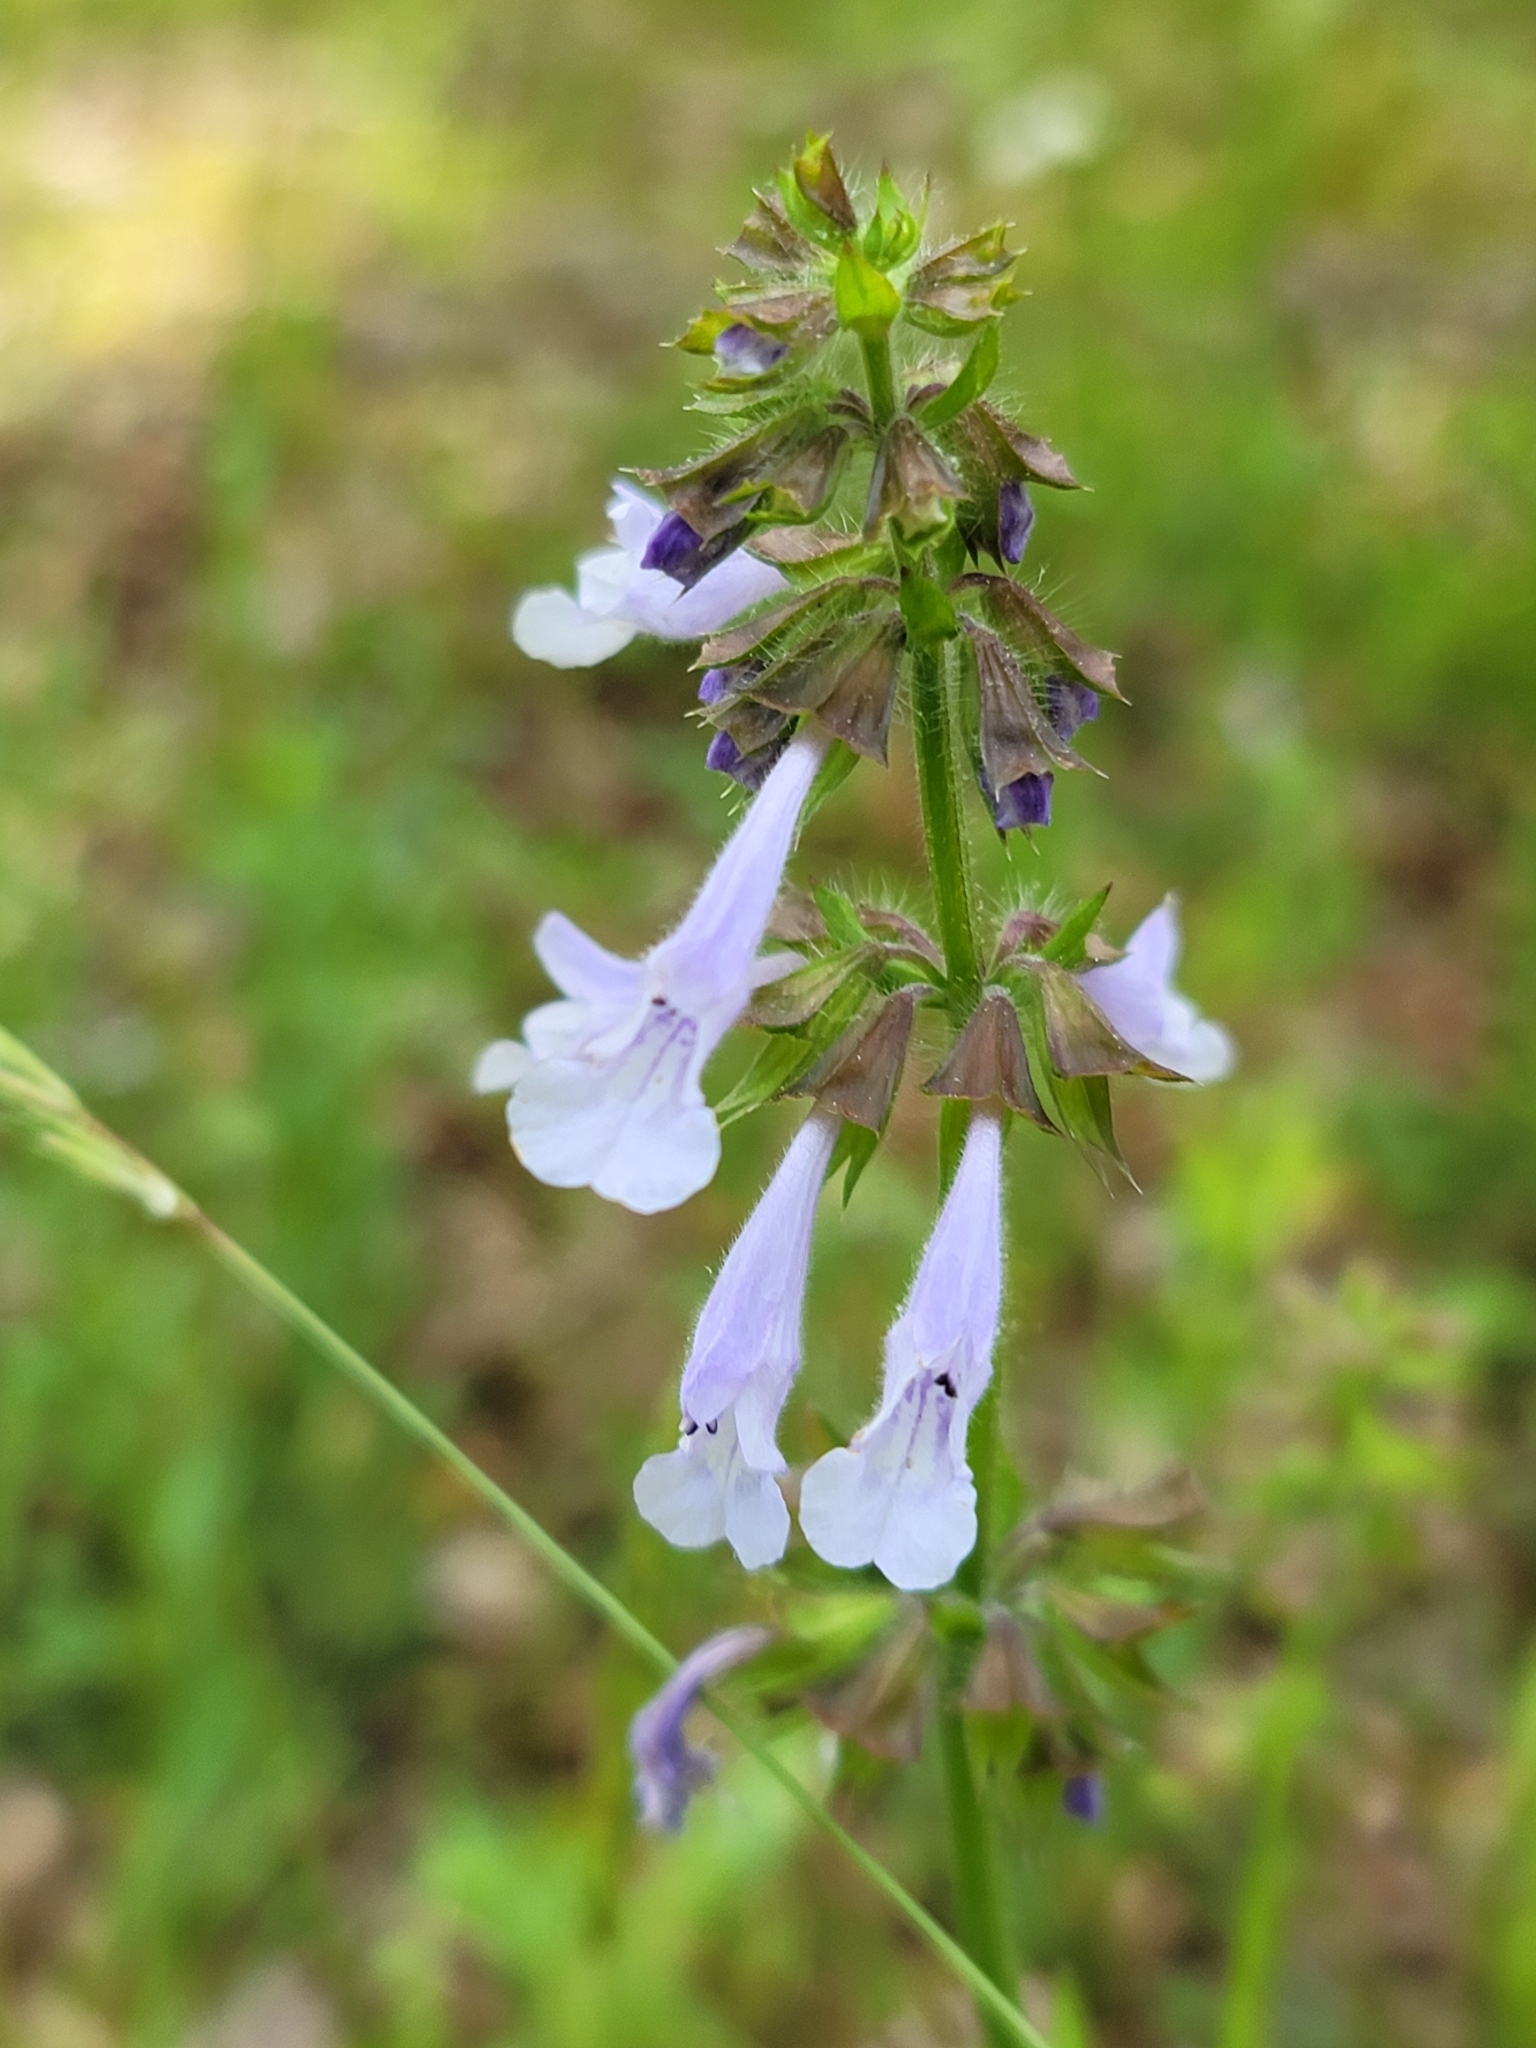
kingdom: Plantae
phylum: Tracheophyta
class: Magnoliopsida
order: Lamiales
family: Lamiaceae
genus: Salvia
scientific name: Salvia lyrata
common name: Cancerweed
